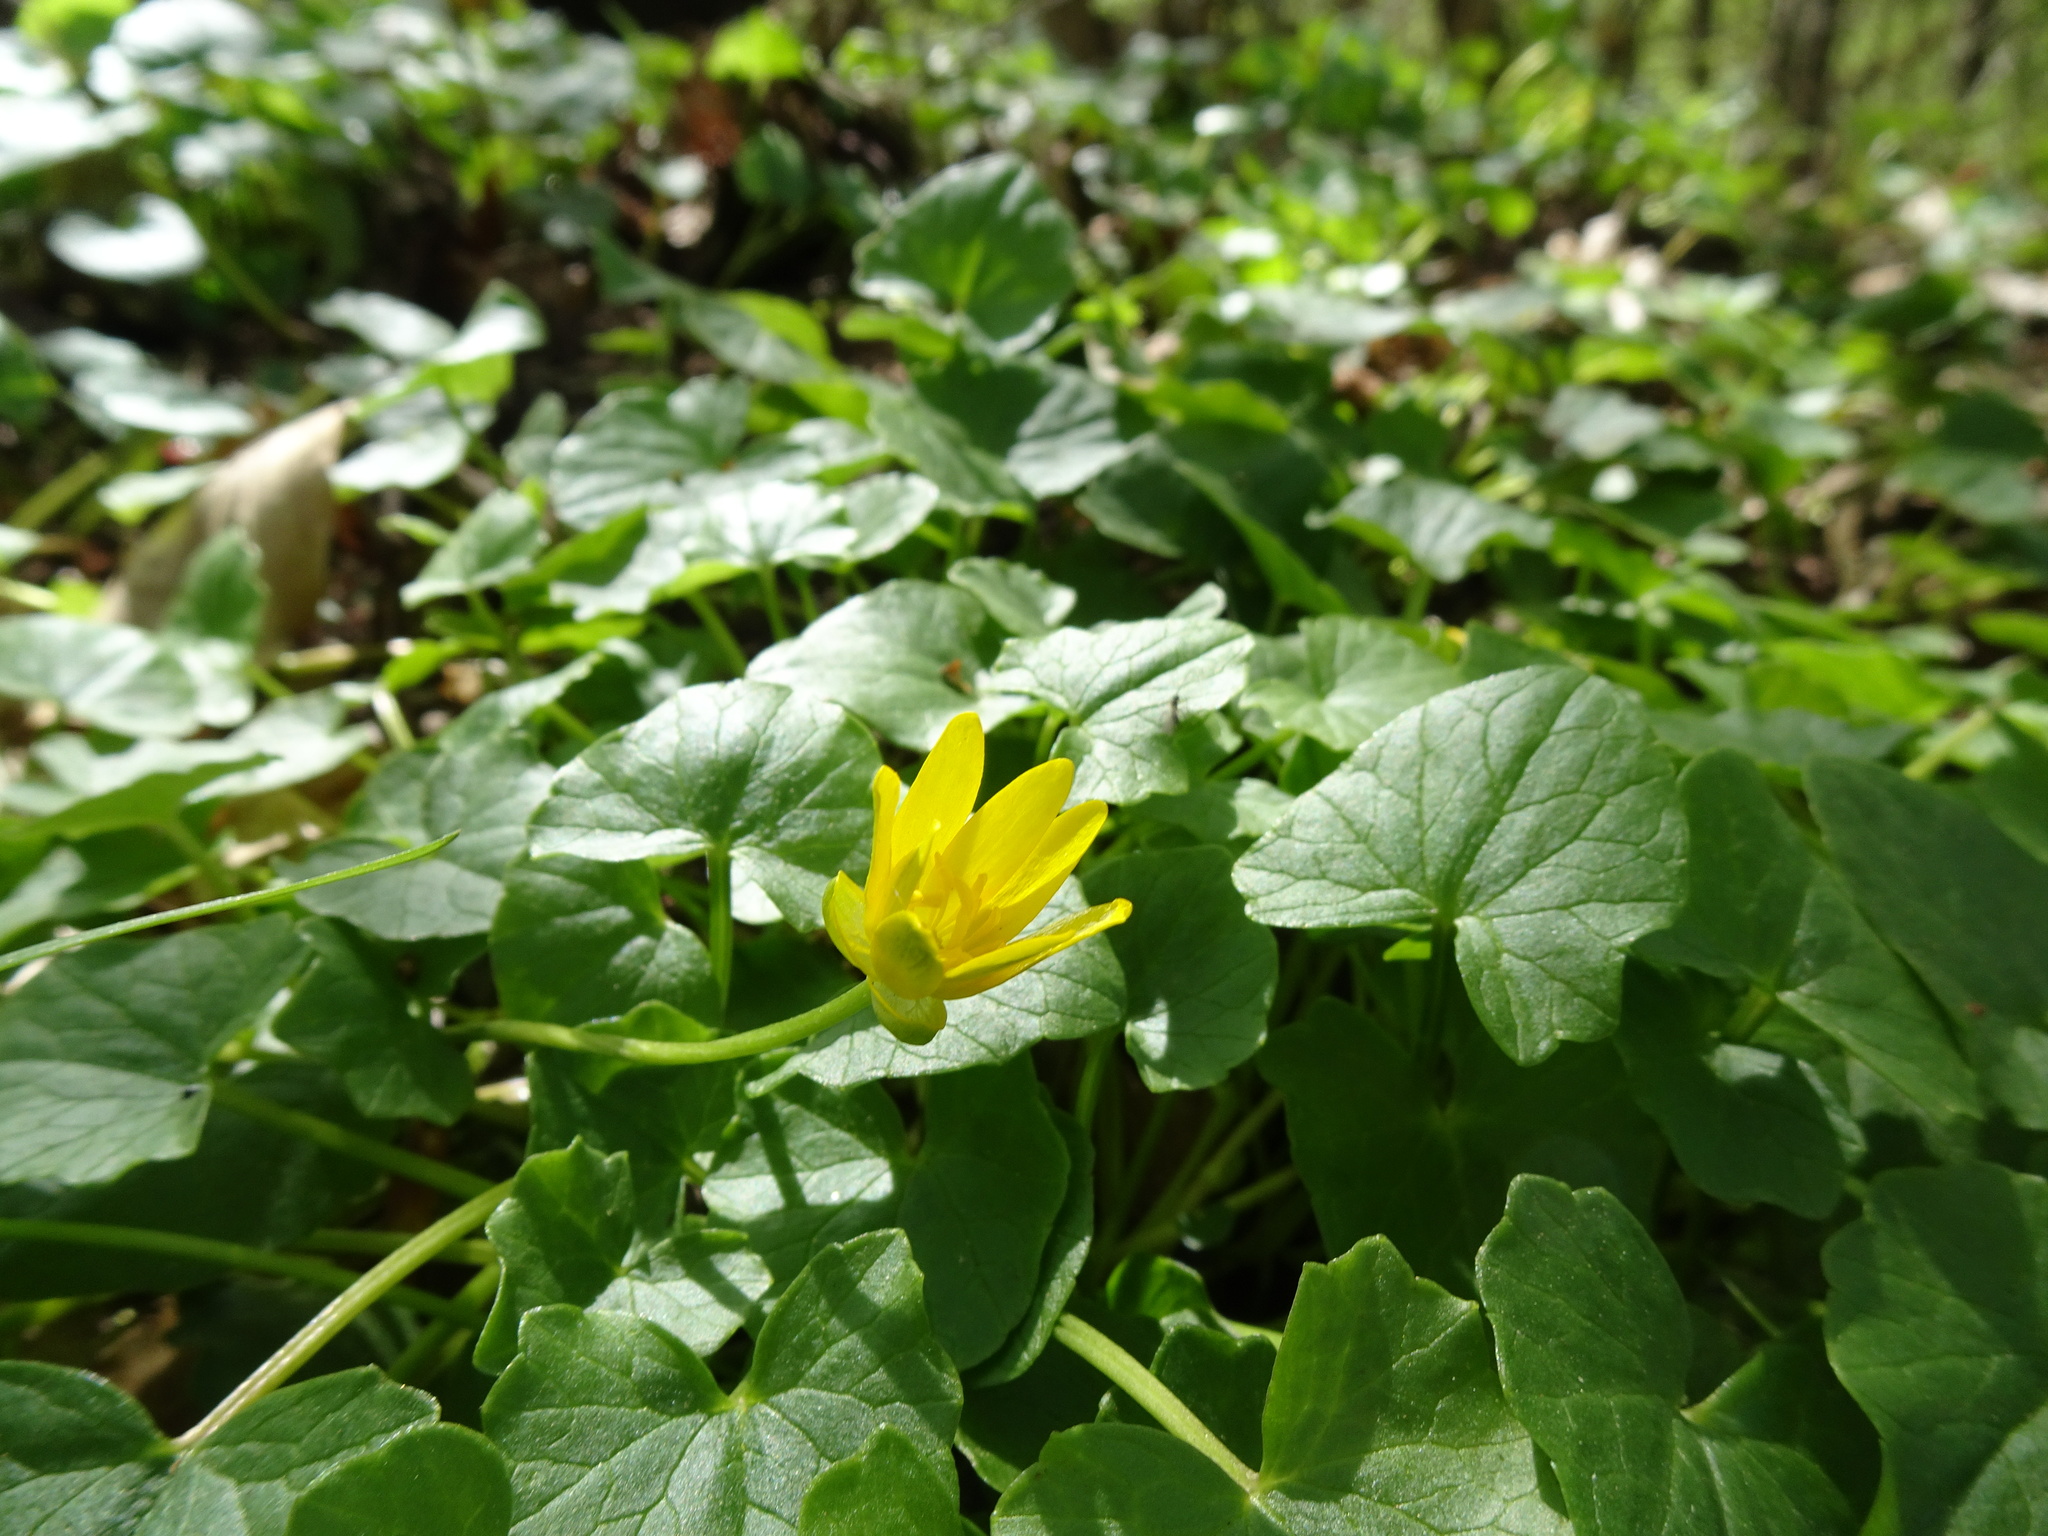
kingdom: Plantae
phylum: Tracheophyta
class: Magnoliopsida
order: Ranunculales
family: Ranunculaceae
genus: Ficaria
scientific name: Ficaria verna
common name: Lesser celandine
